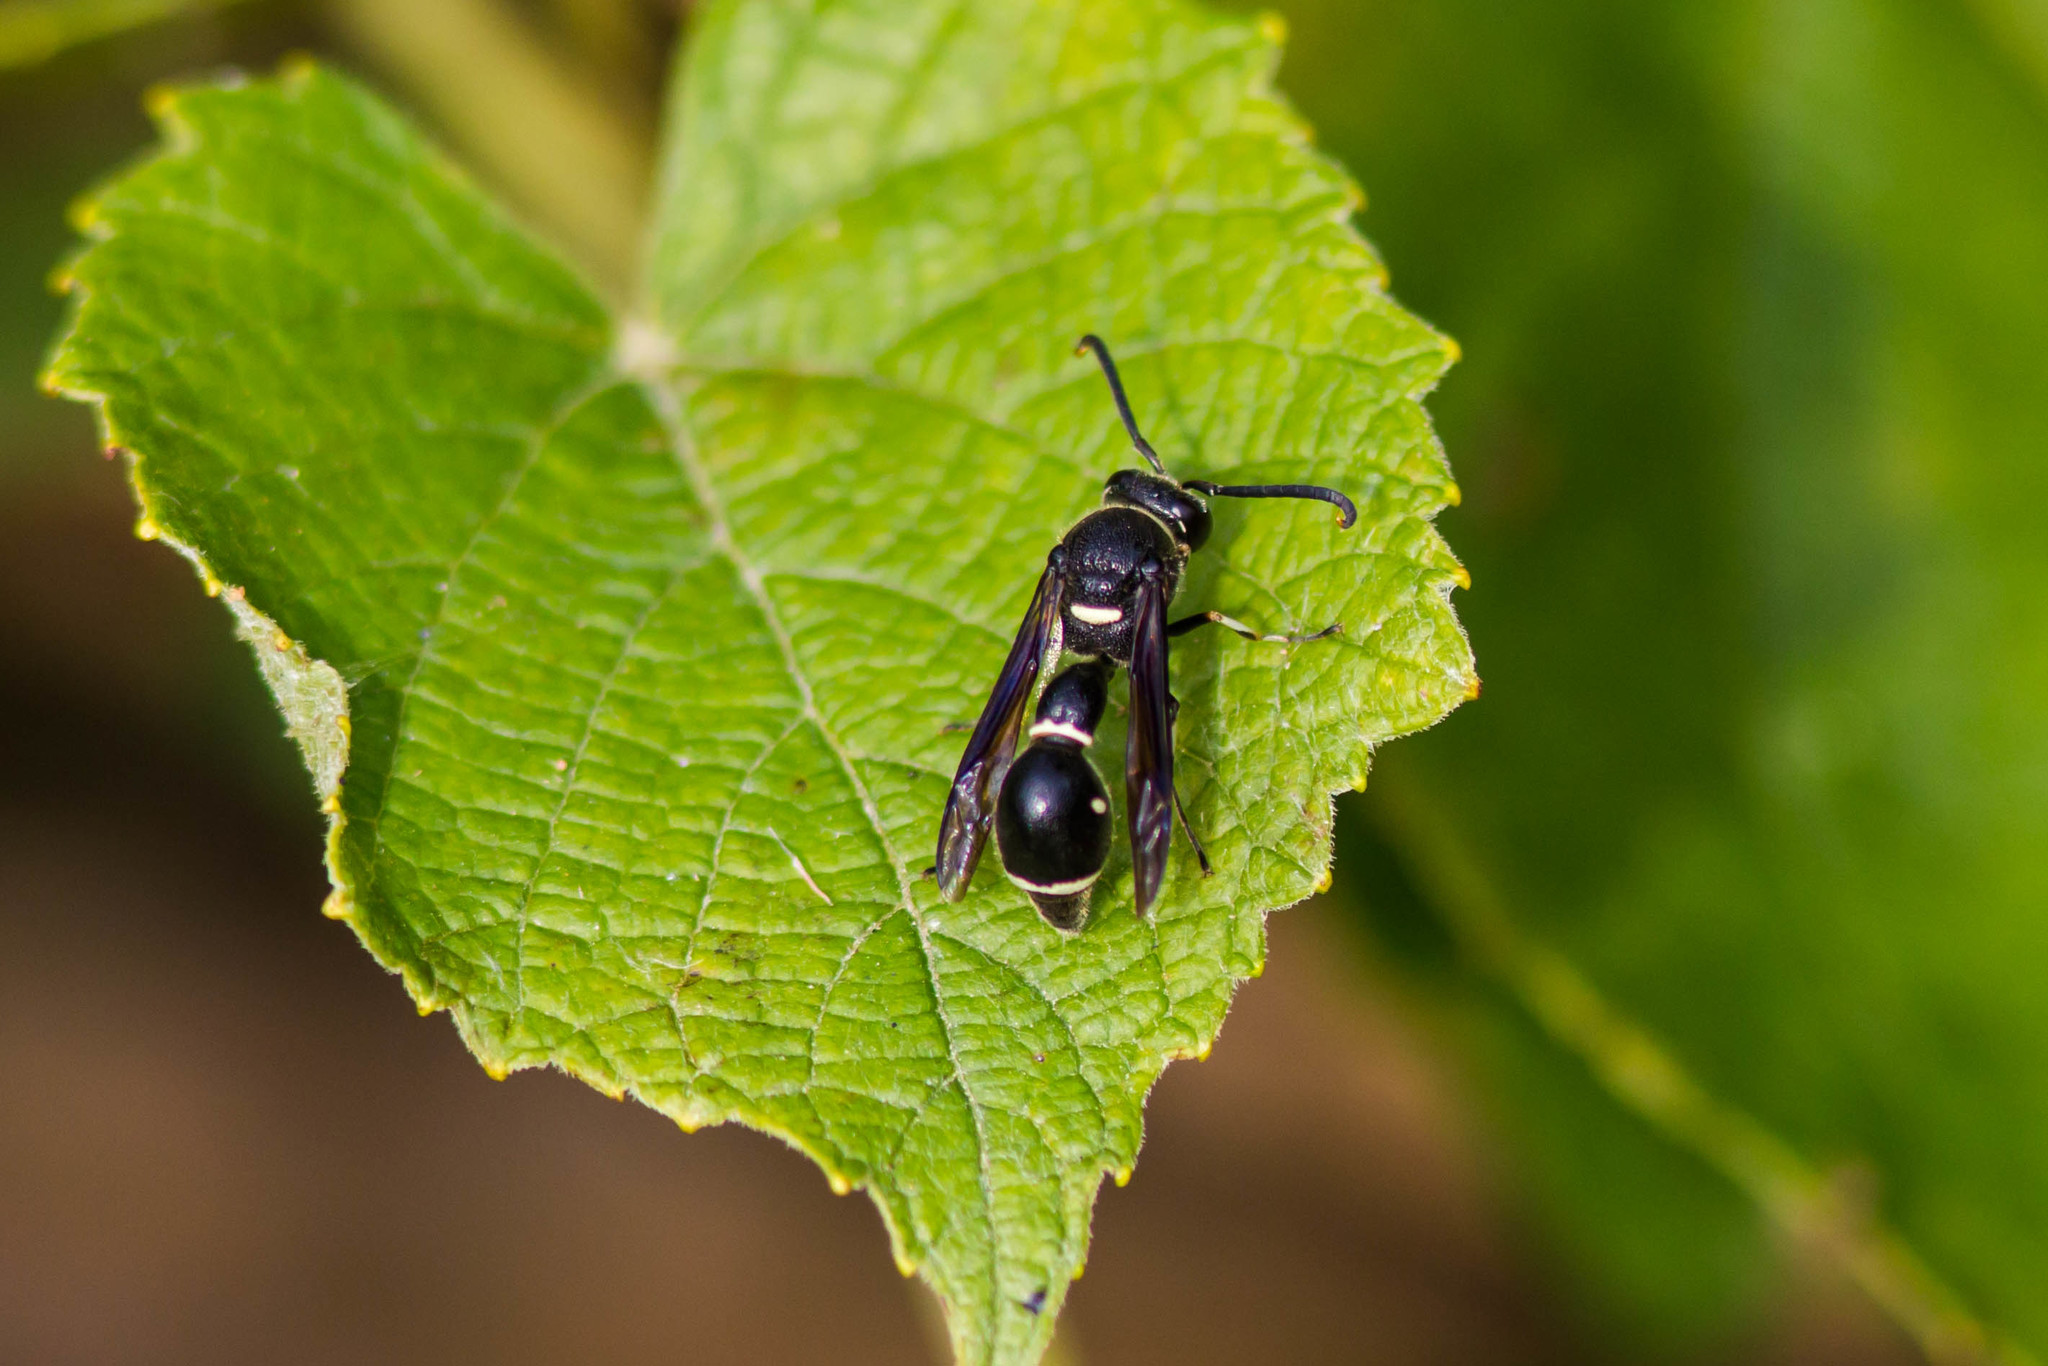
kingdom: Animalia
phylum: Arthropoda
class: Insecta
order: Hymenoptera
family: Vespidae
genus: Eumenes
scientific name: Eumenes fraternus
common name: Fraternal potter wasp
